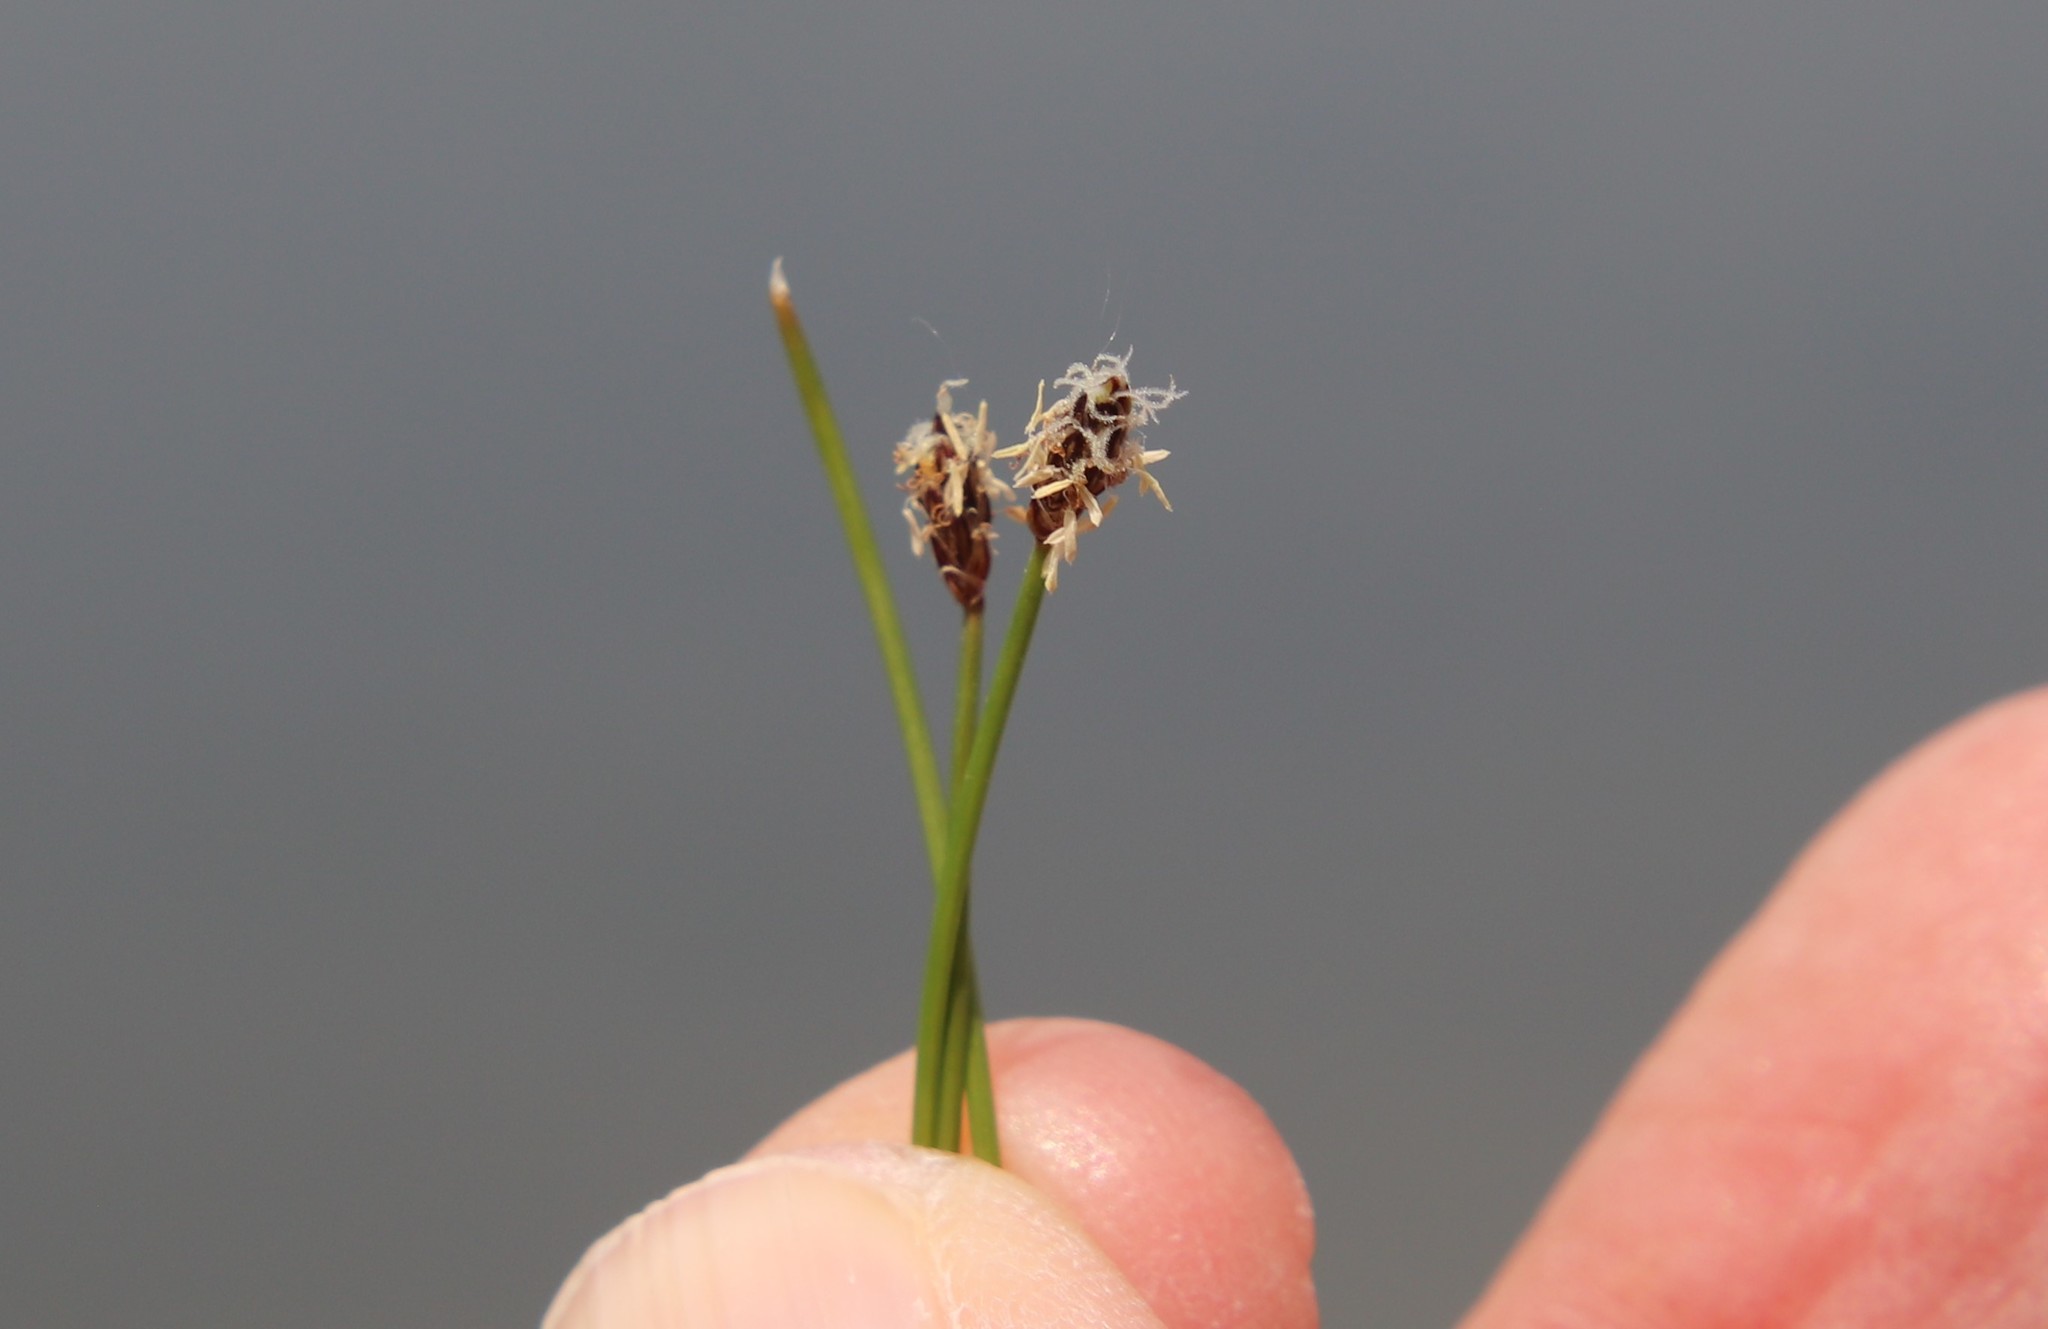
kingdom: Plantae
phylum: Tracheophyta
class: Liliopsida
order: Poales
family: Cyperaceae
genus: Eleocharis
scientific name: Eleocharis montevidensis
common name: Sand spike-rush
